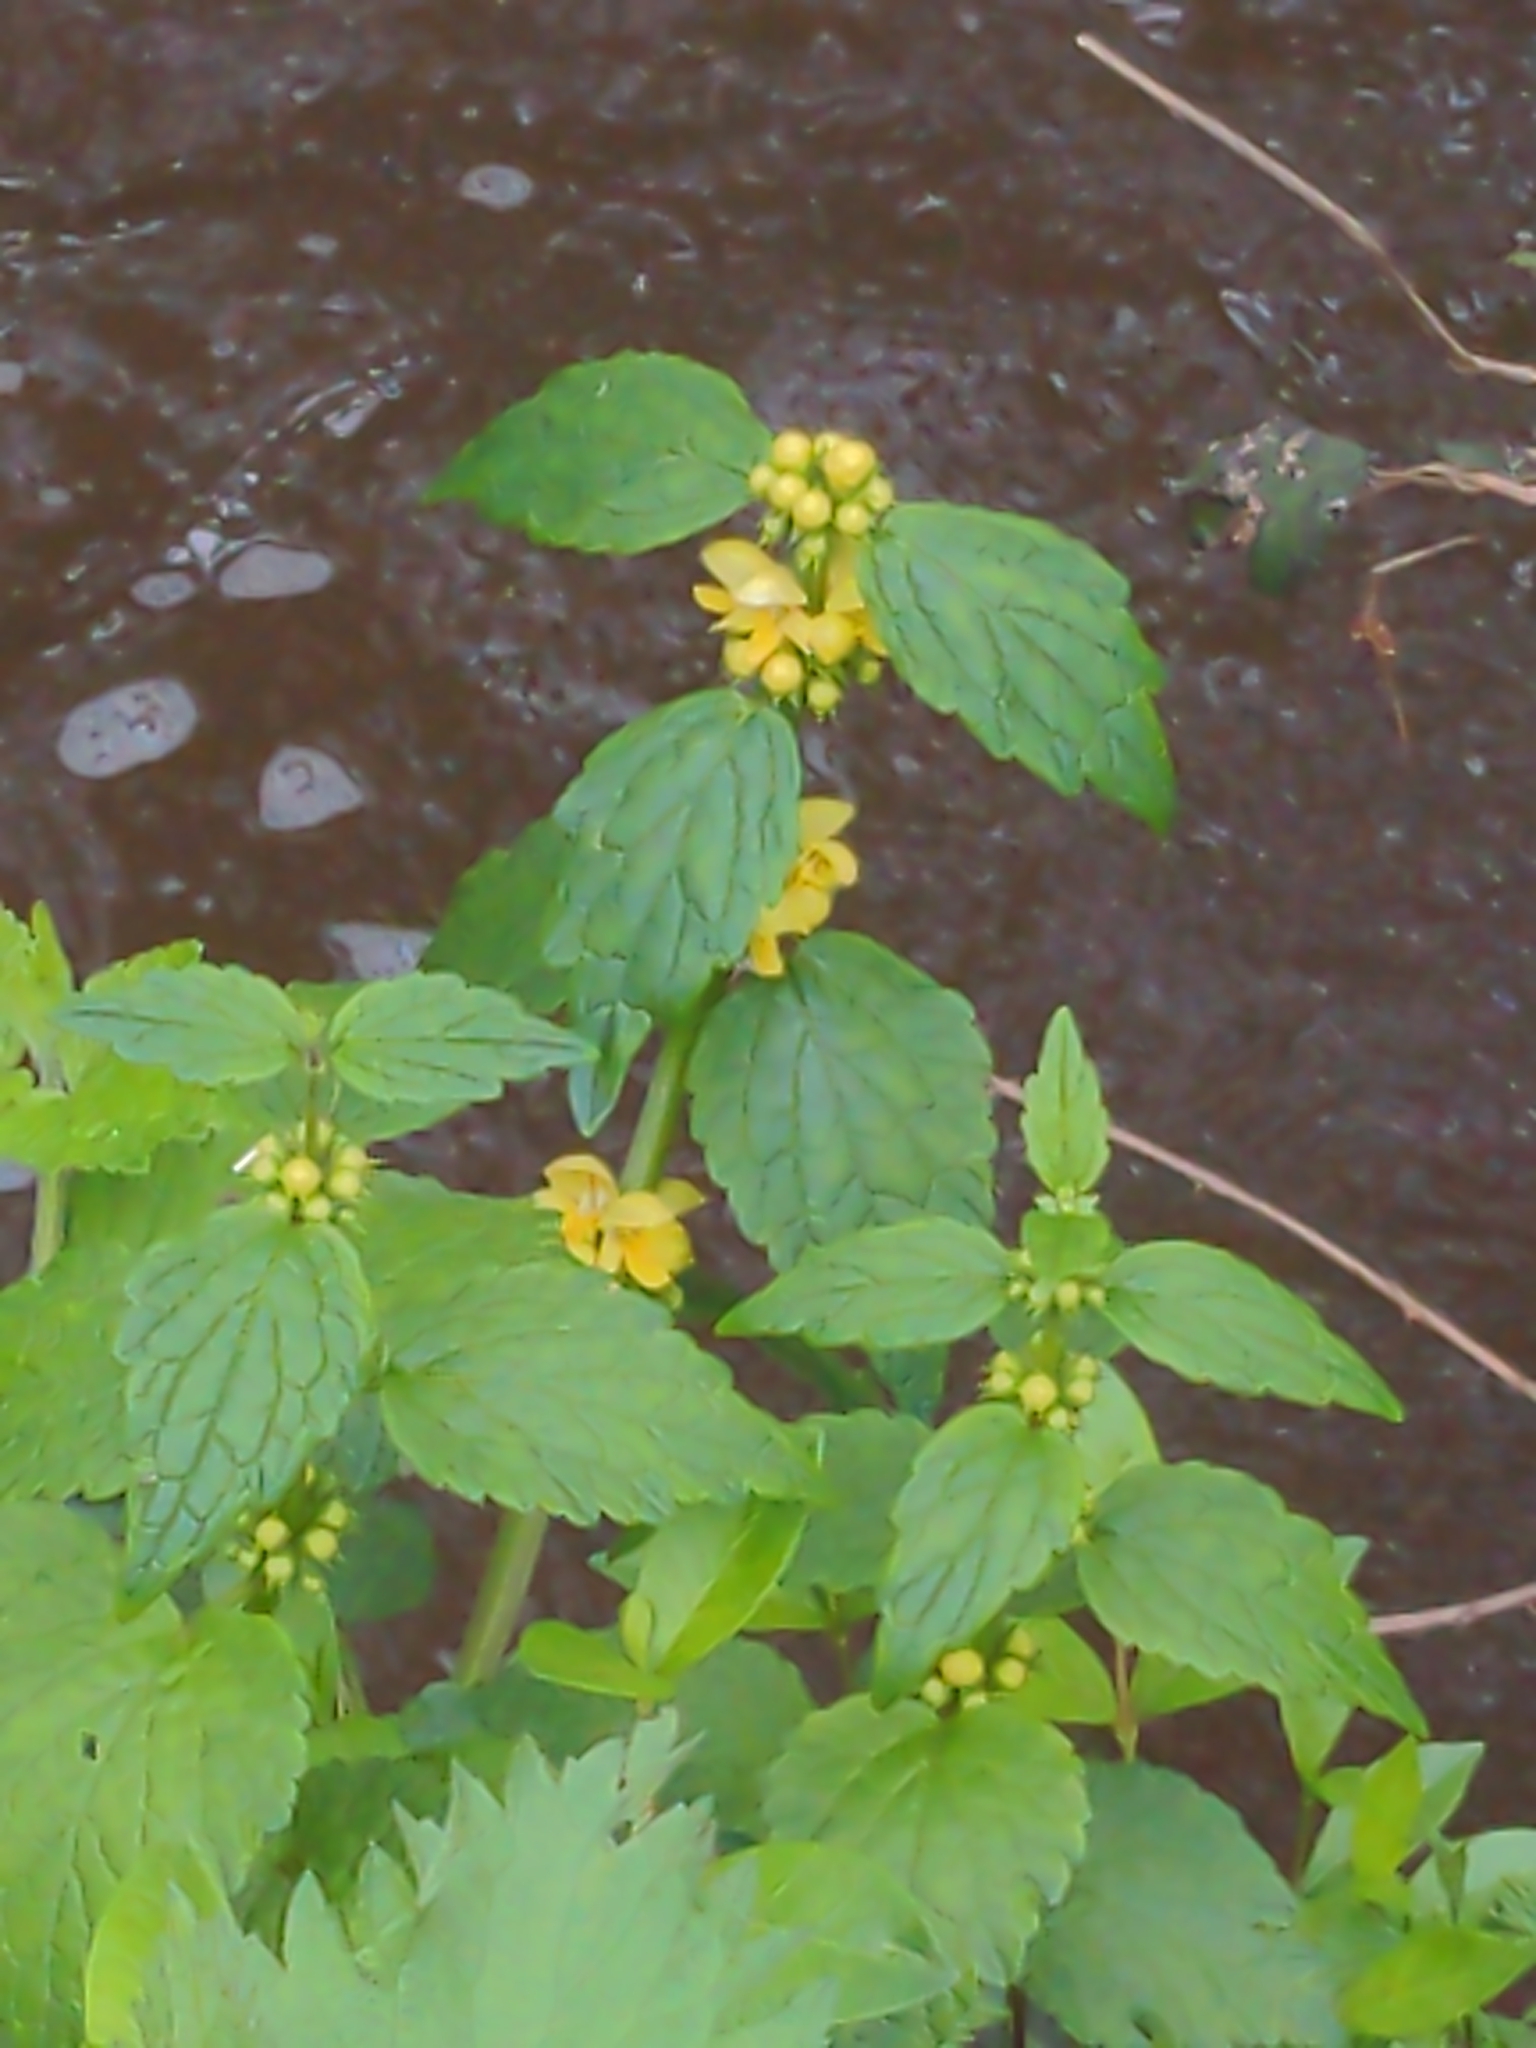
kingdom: Plantae
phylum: Tracheophyta
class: Magnoliopsida
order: Lamiales
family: Lamiaceae
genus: Lamium
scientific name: Lamium galeobdolon
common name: Yellow archangel
